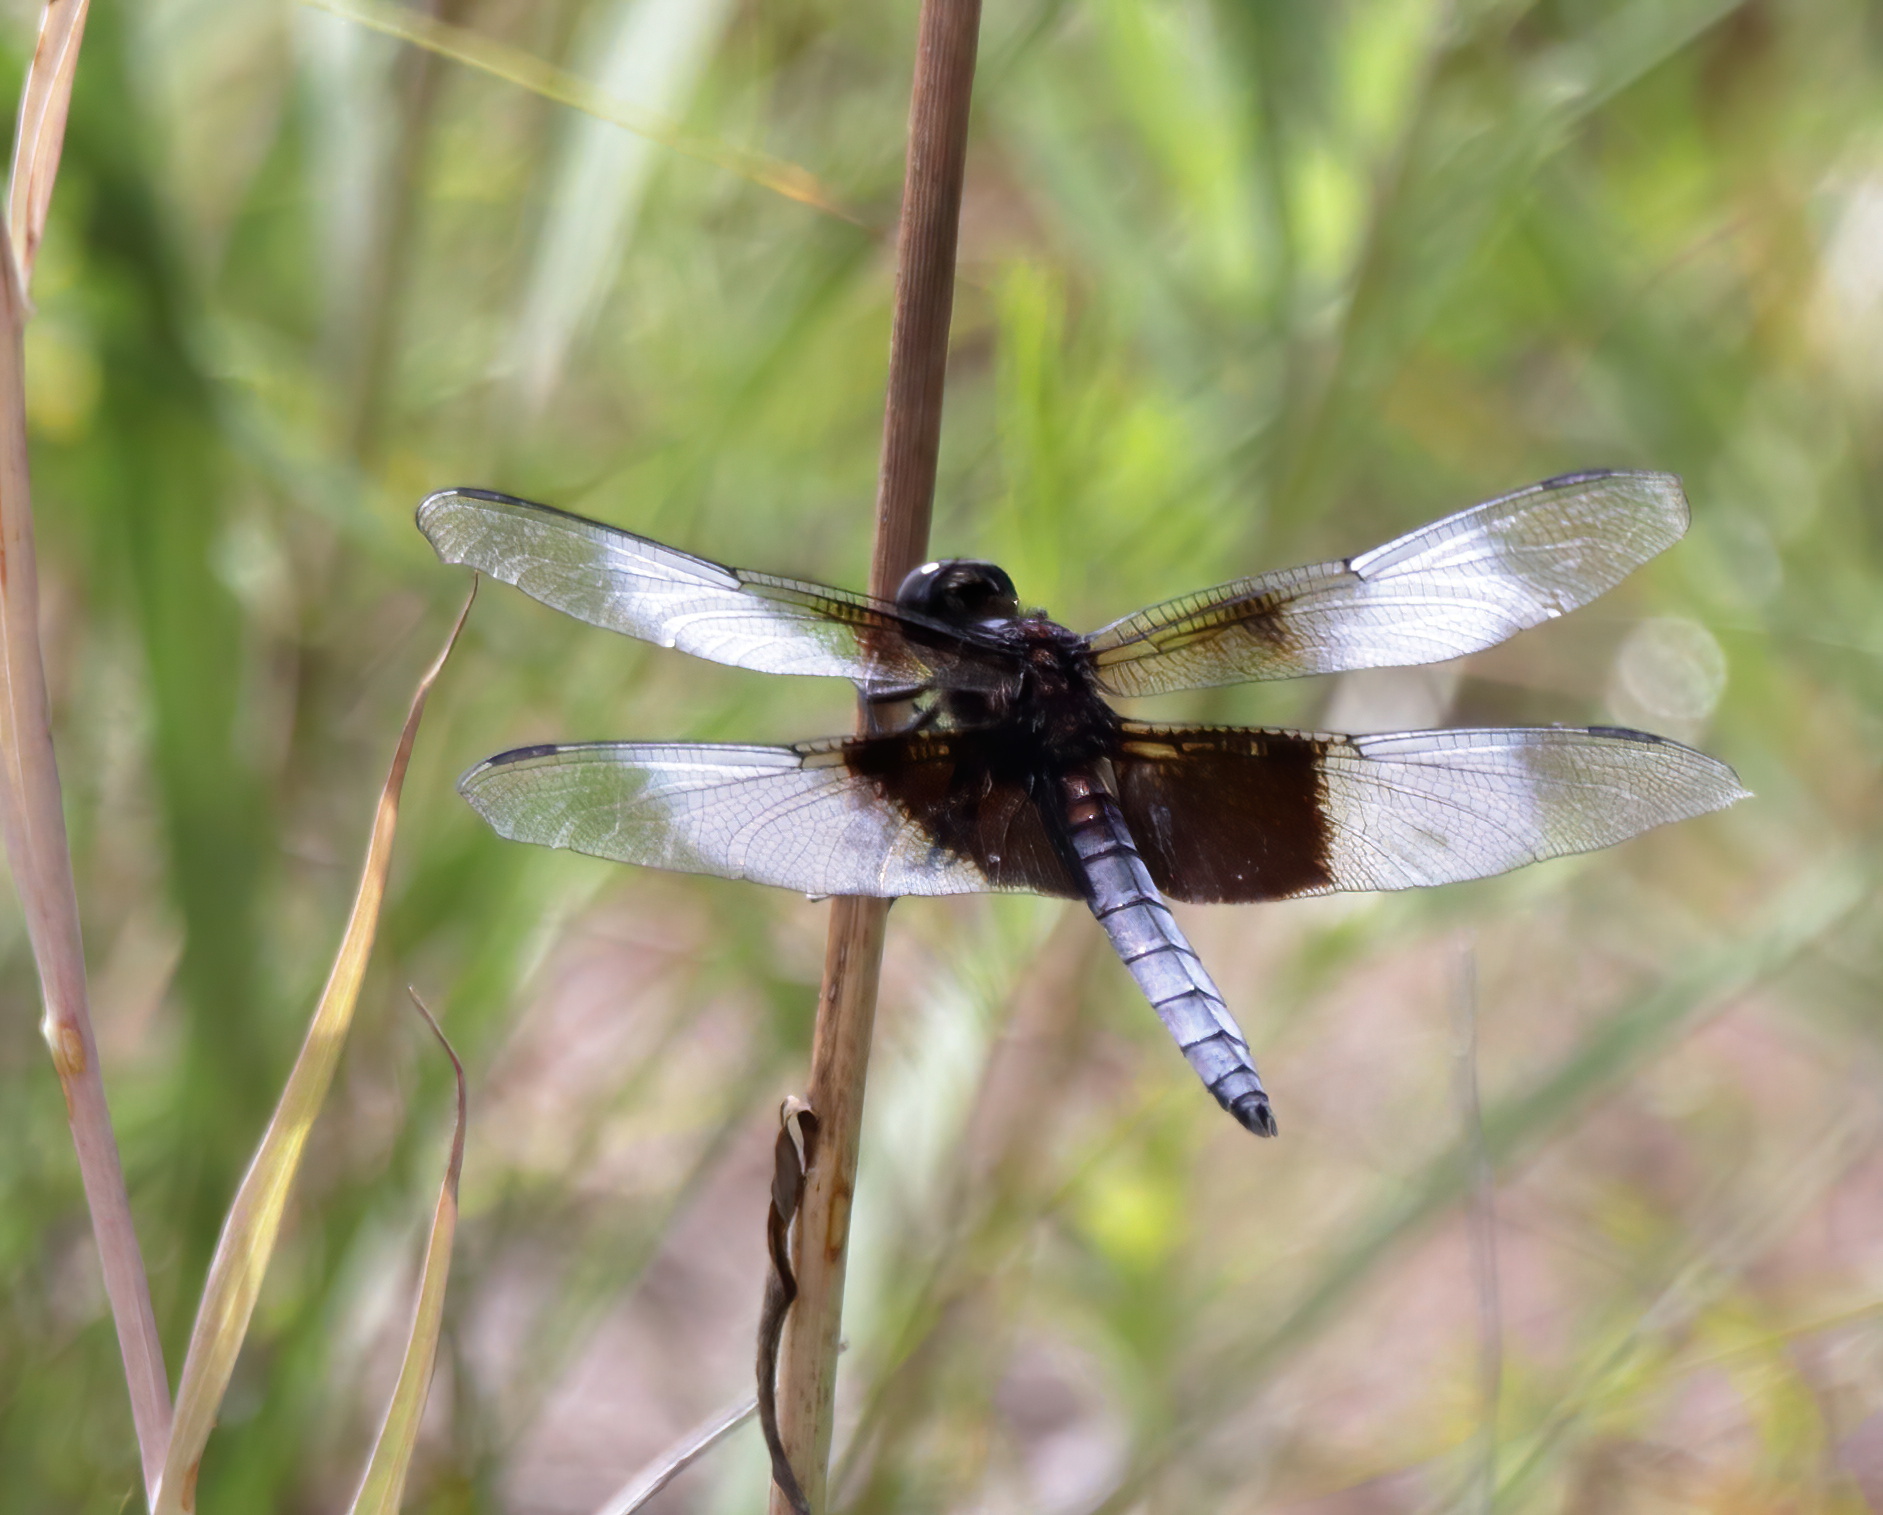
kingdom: Animalia
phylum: Arthropoda
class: Insecta
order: Odonata
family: Libellulidae
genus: Libellula
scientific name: Libellula luctuosa
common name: Widow skimmer
